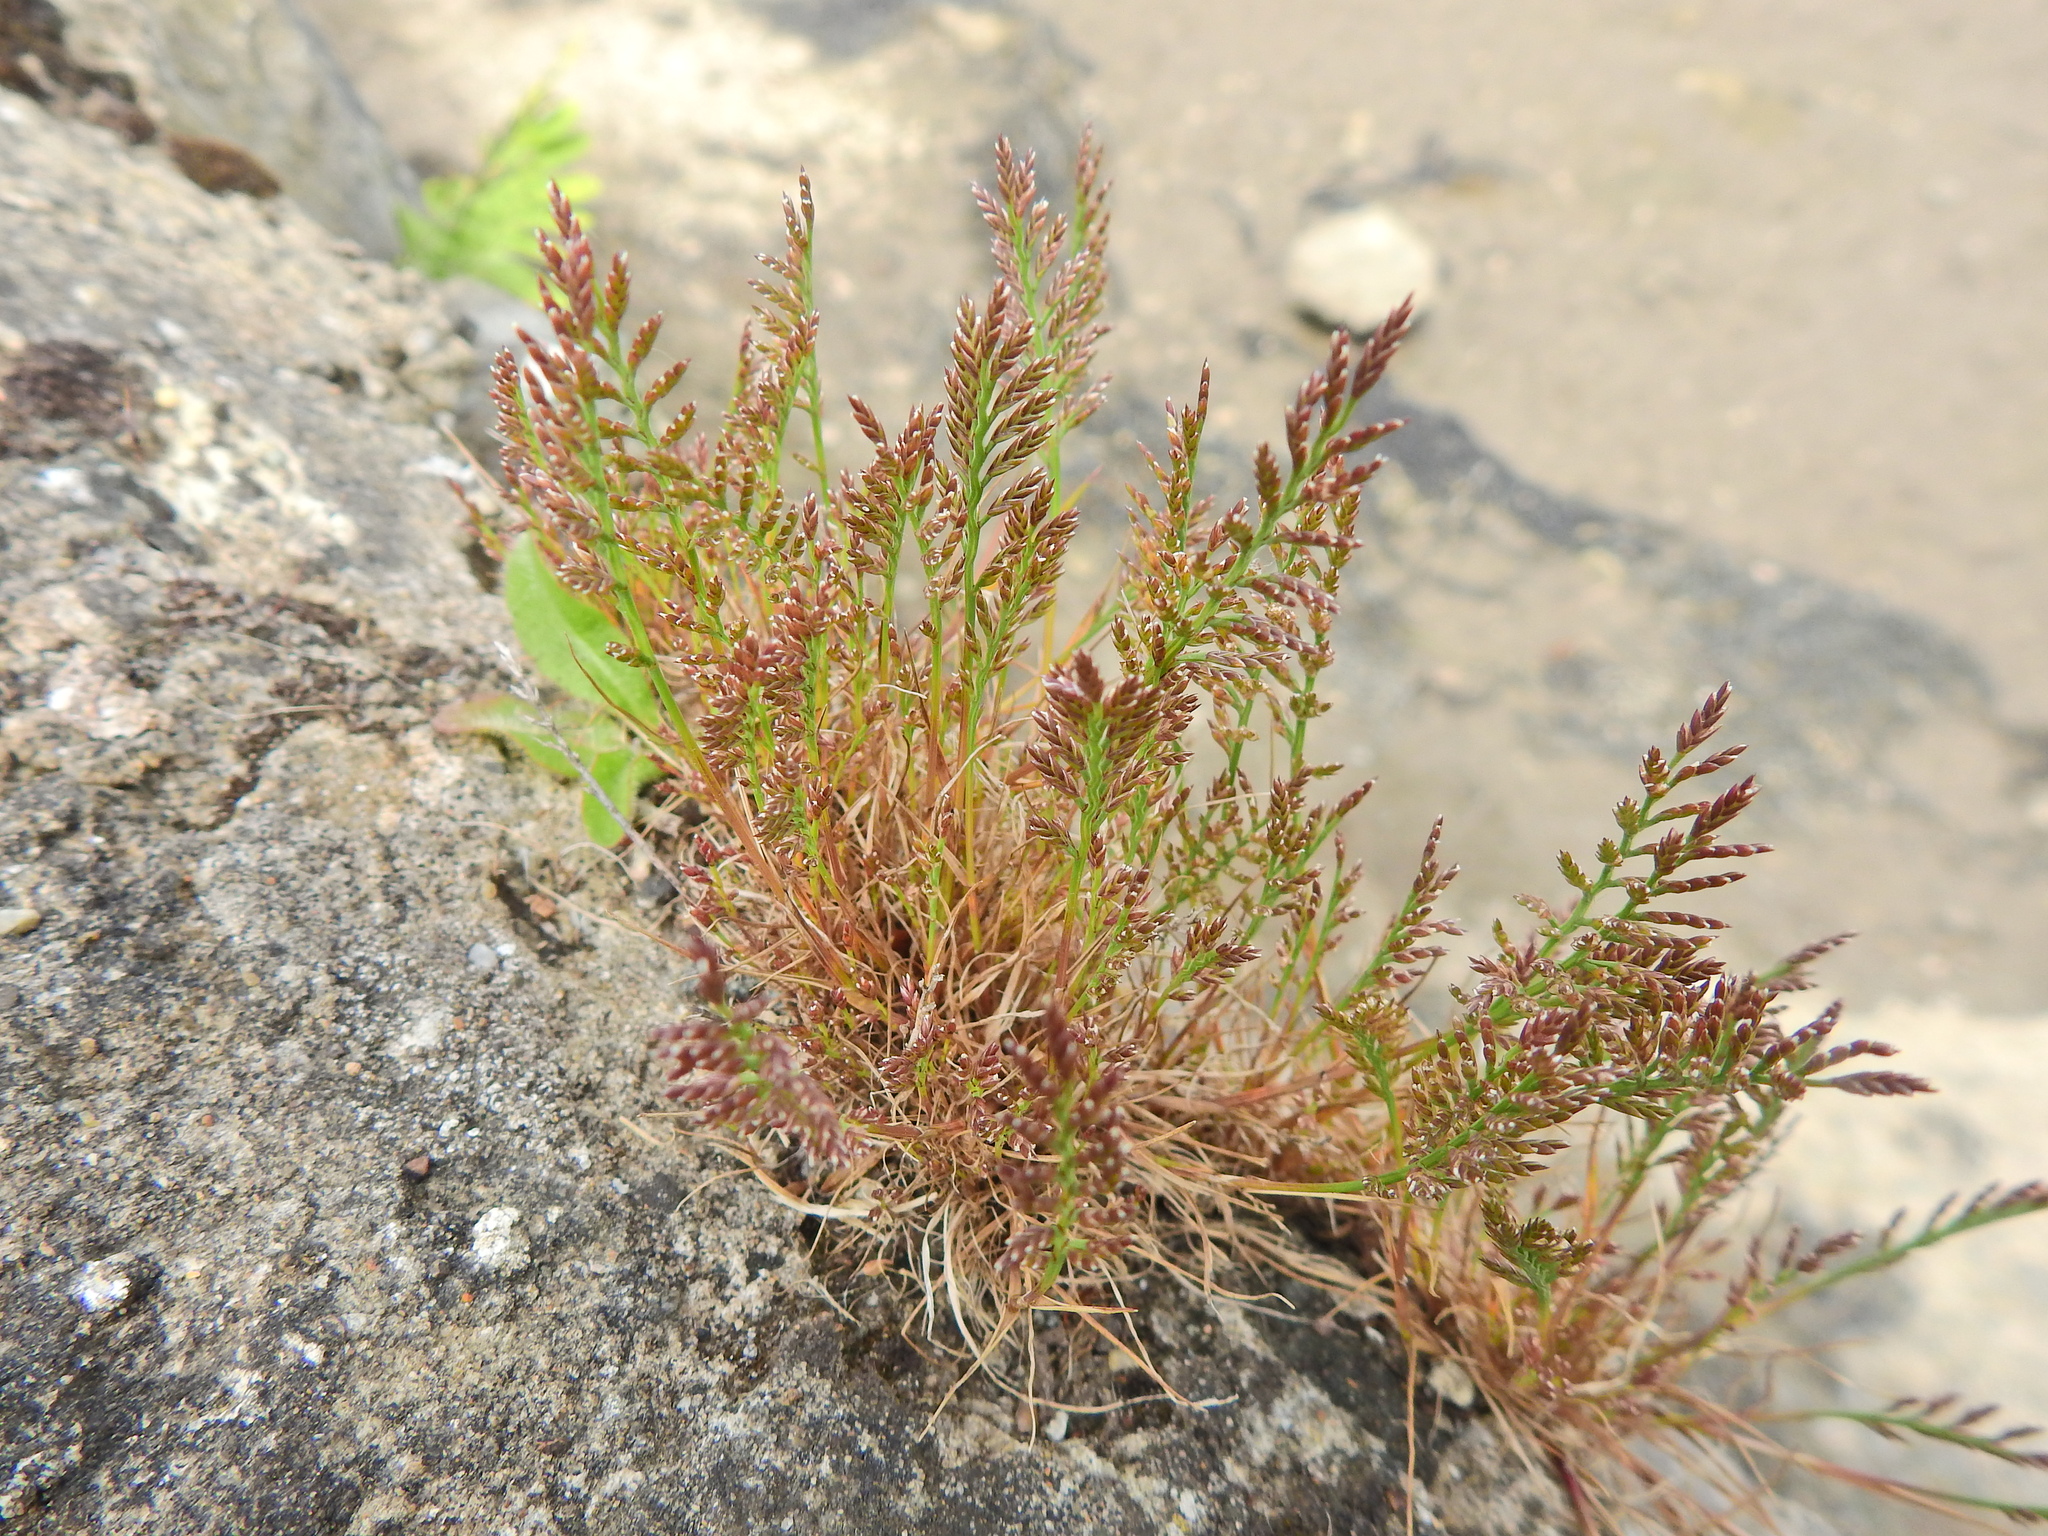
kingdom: Plantae
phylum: Tracheophyta
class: Liliopsida
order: Poales
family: Poaceae
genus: Catapodium
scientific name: Catapodium rigidum
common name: Fern-grass
